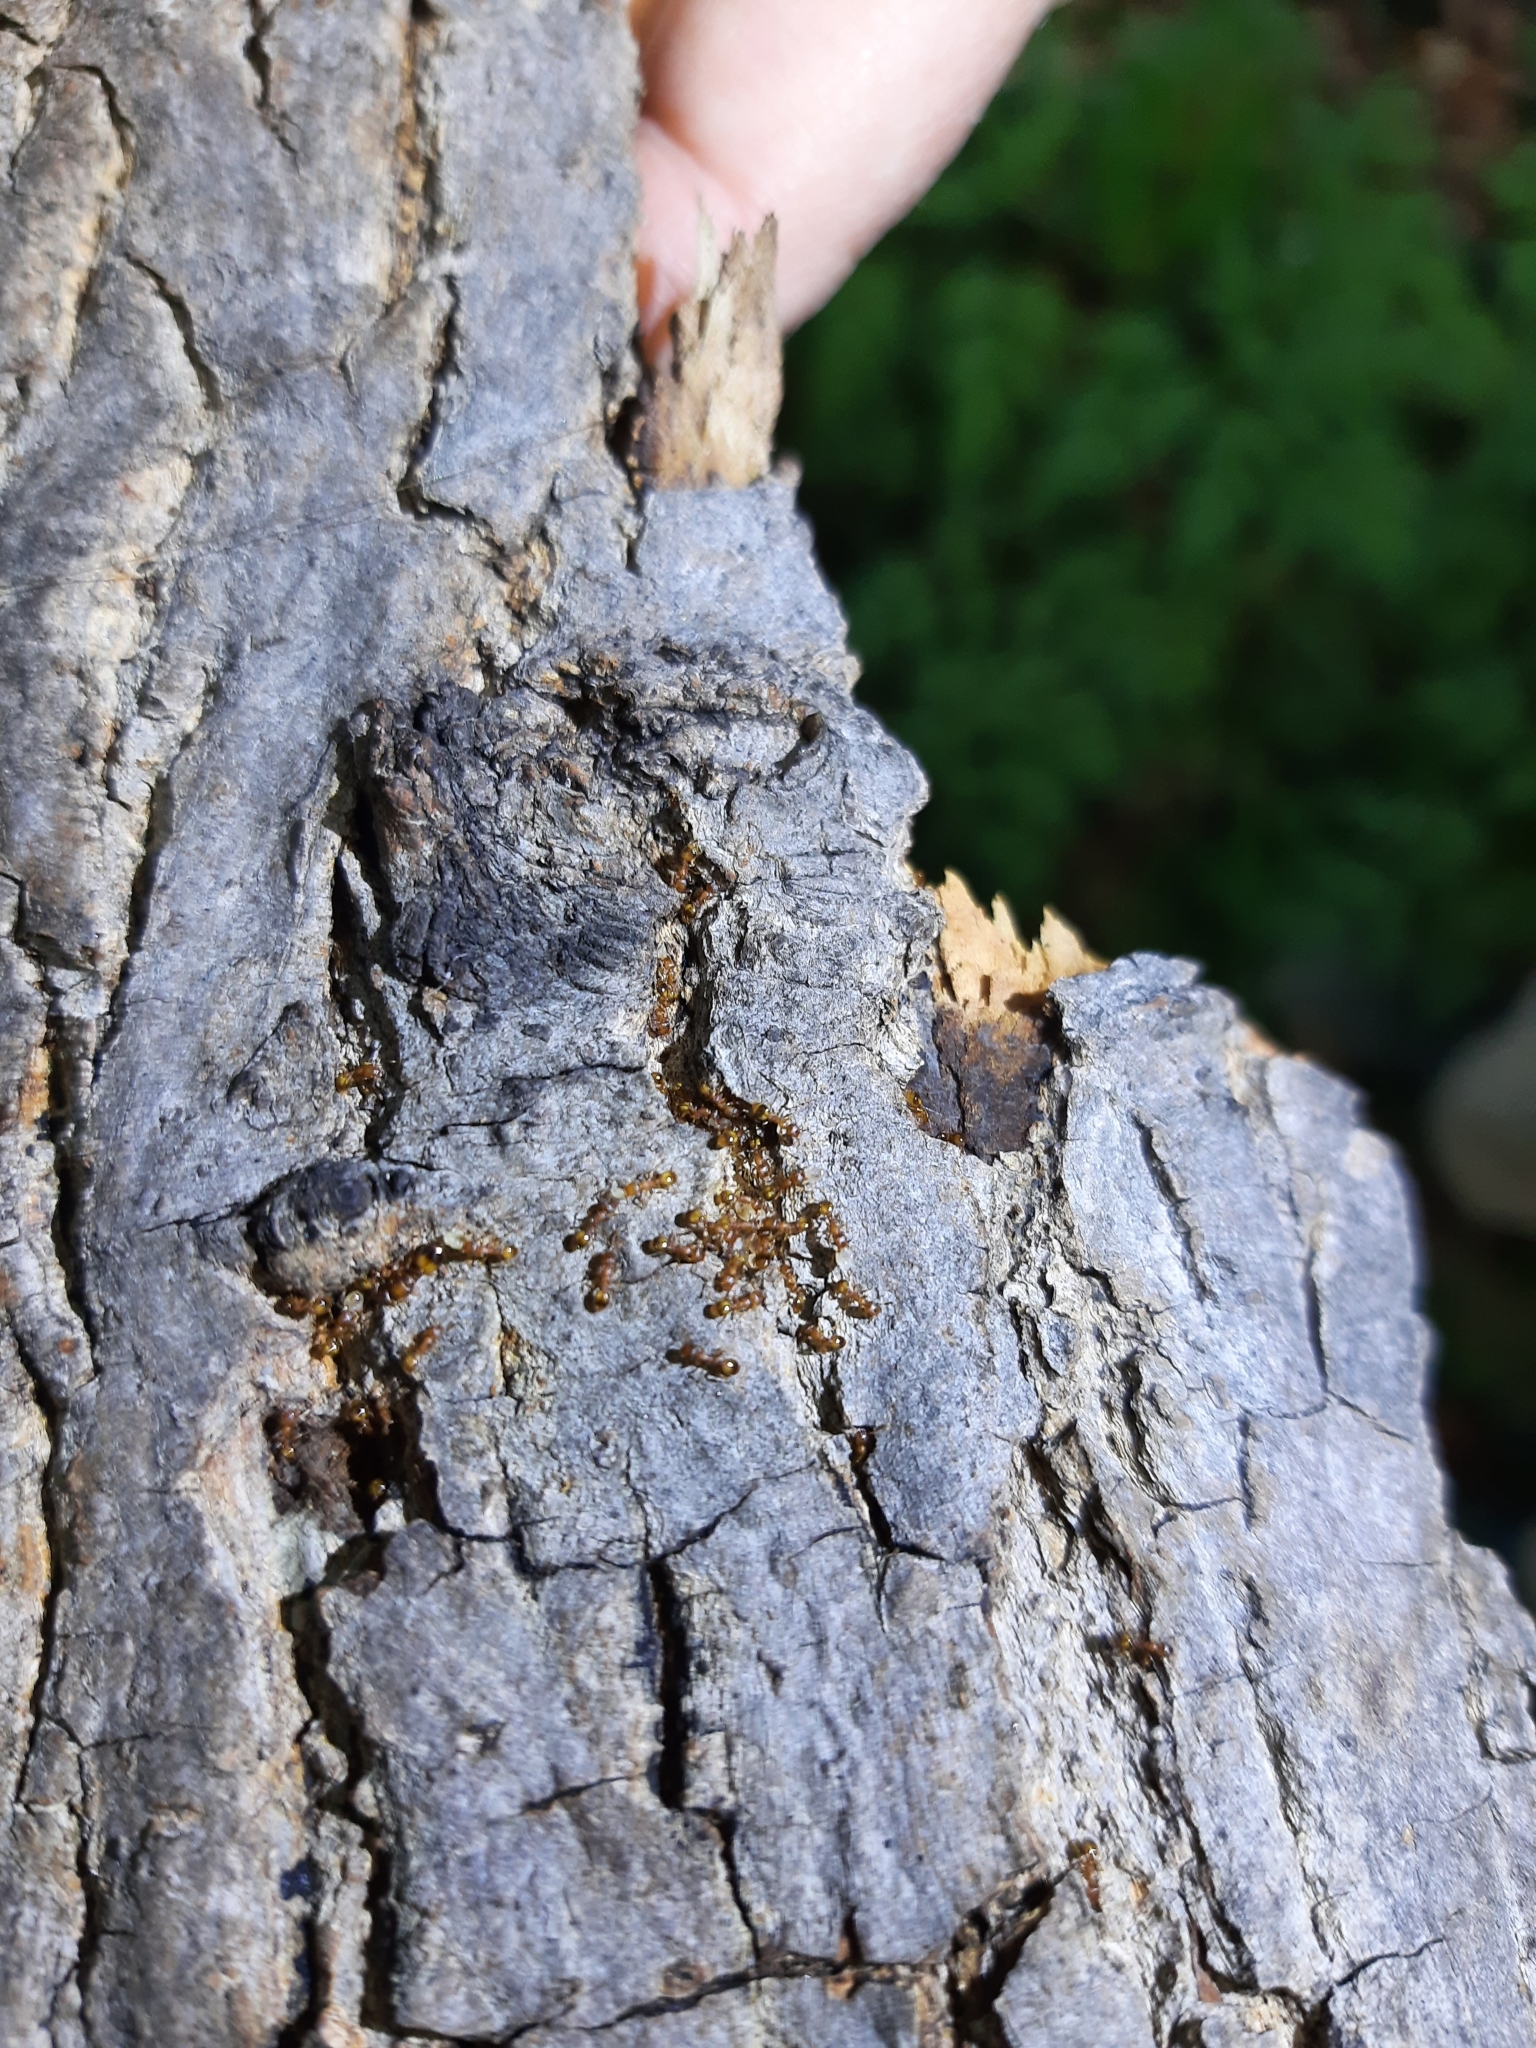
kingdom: Animalia
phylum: Arthropoda
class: Insecta
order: Hymenoptera
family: Formicidae
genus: Temnothorax
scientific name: Temnothorax
